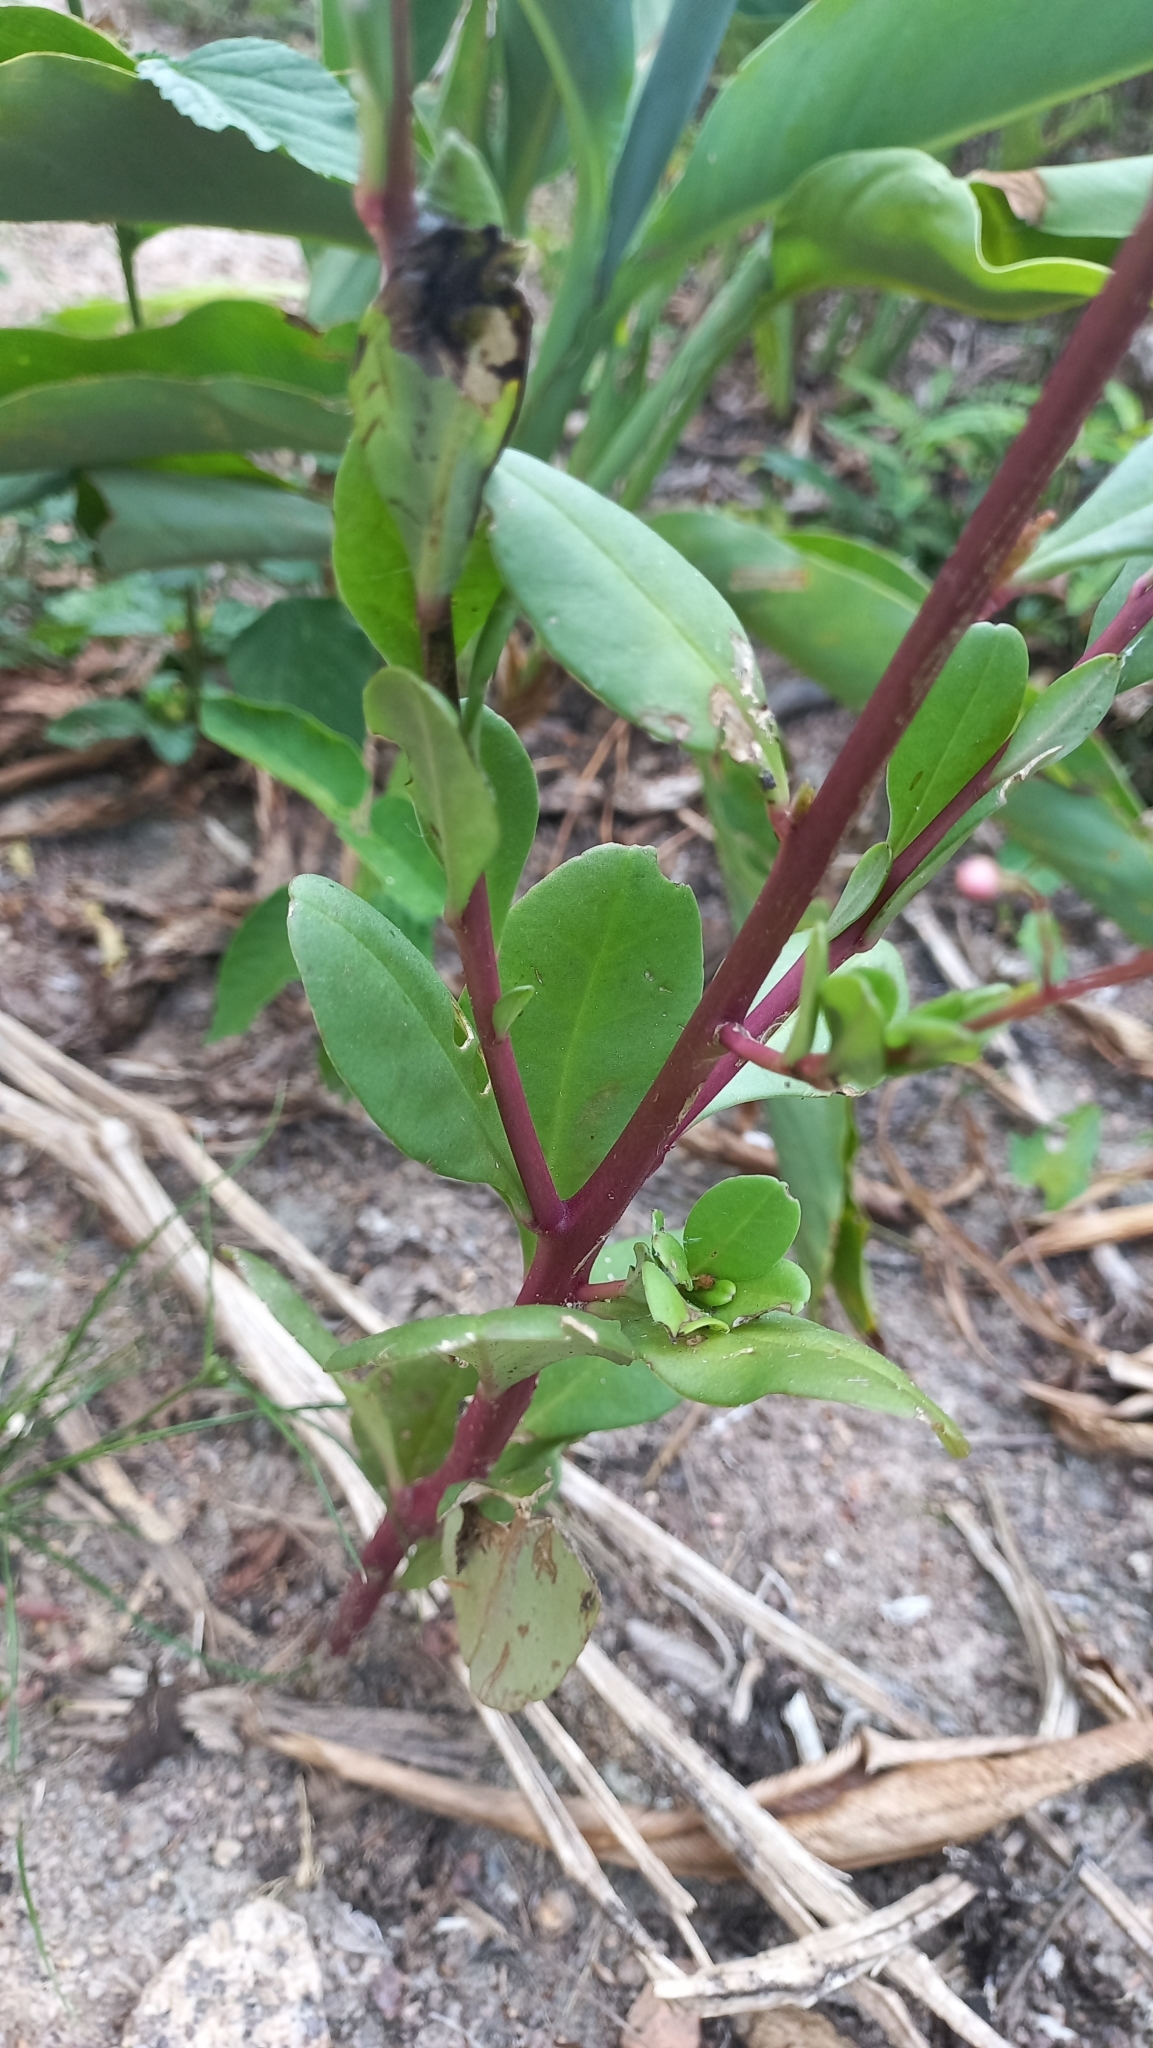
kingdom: Plantae
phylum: Tracheophyta
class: Magnoliopsida
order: Caryophyllales
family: Talinaceae
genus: Talinum
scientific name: Talinum paniculatum
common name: Jewels of opar
